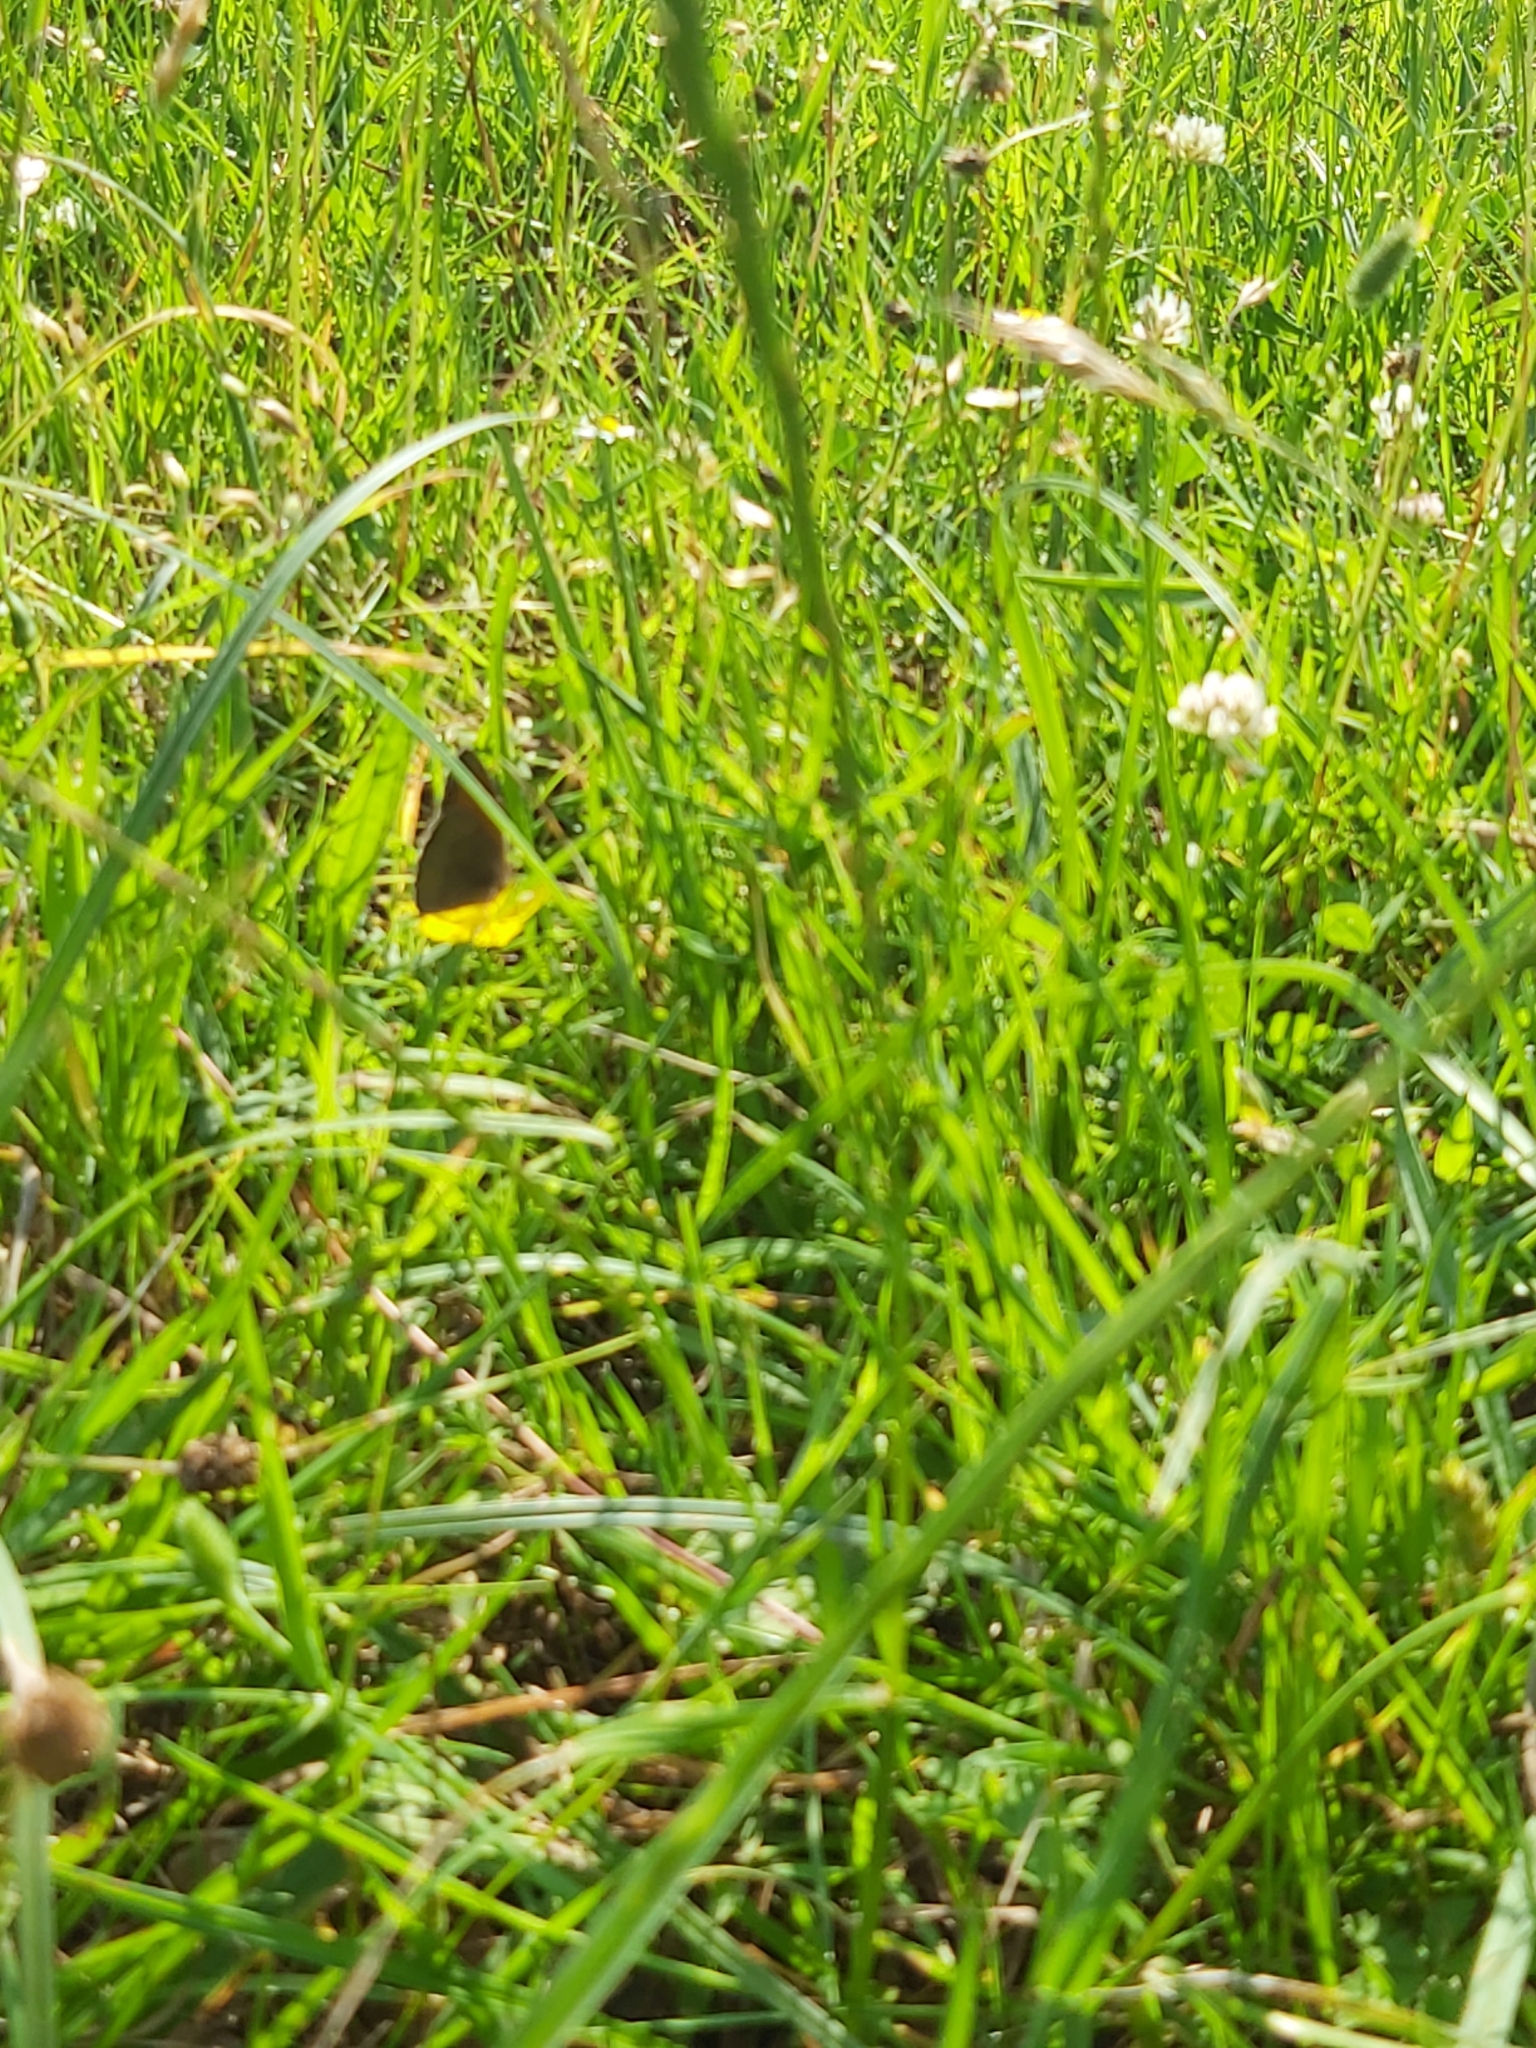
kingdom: Animalia
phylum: Arthropoda
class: Insecta
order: Lepidoptera
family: Nymphalidae
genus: Maniola
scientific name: Maniola jurtina
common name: Meadow brown
